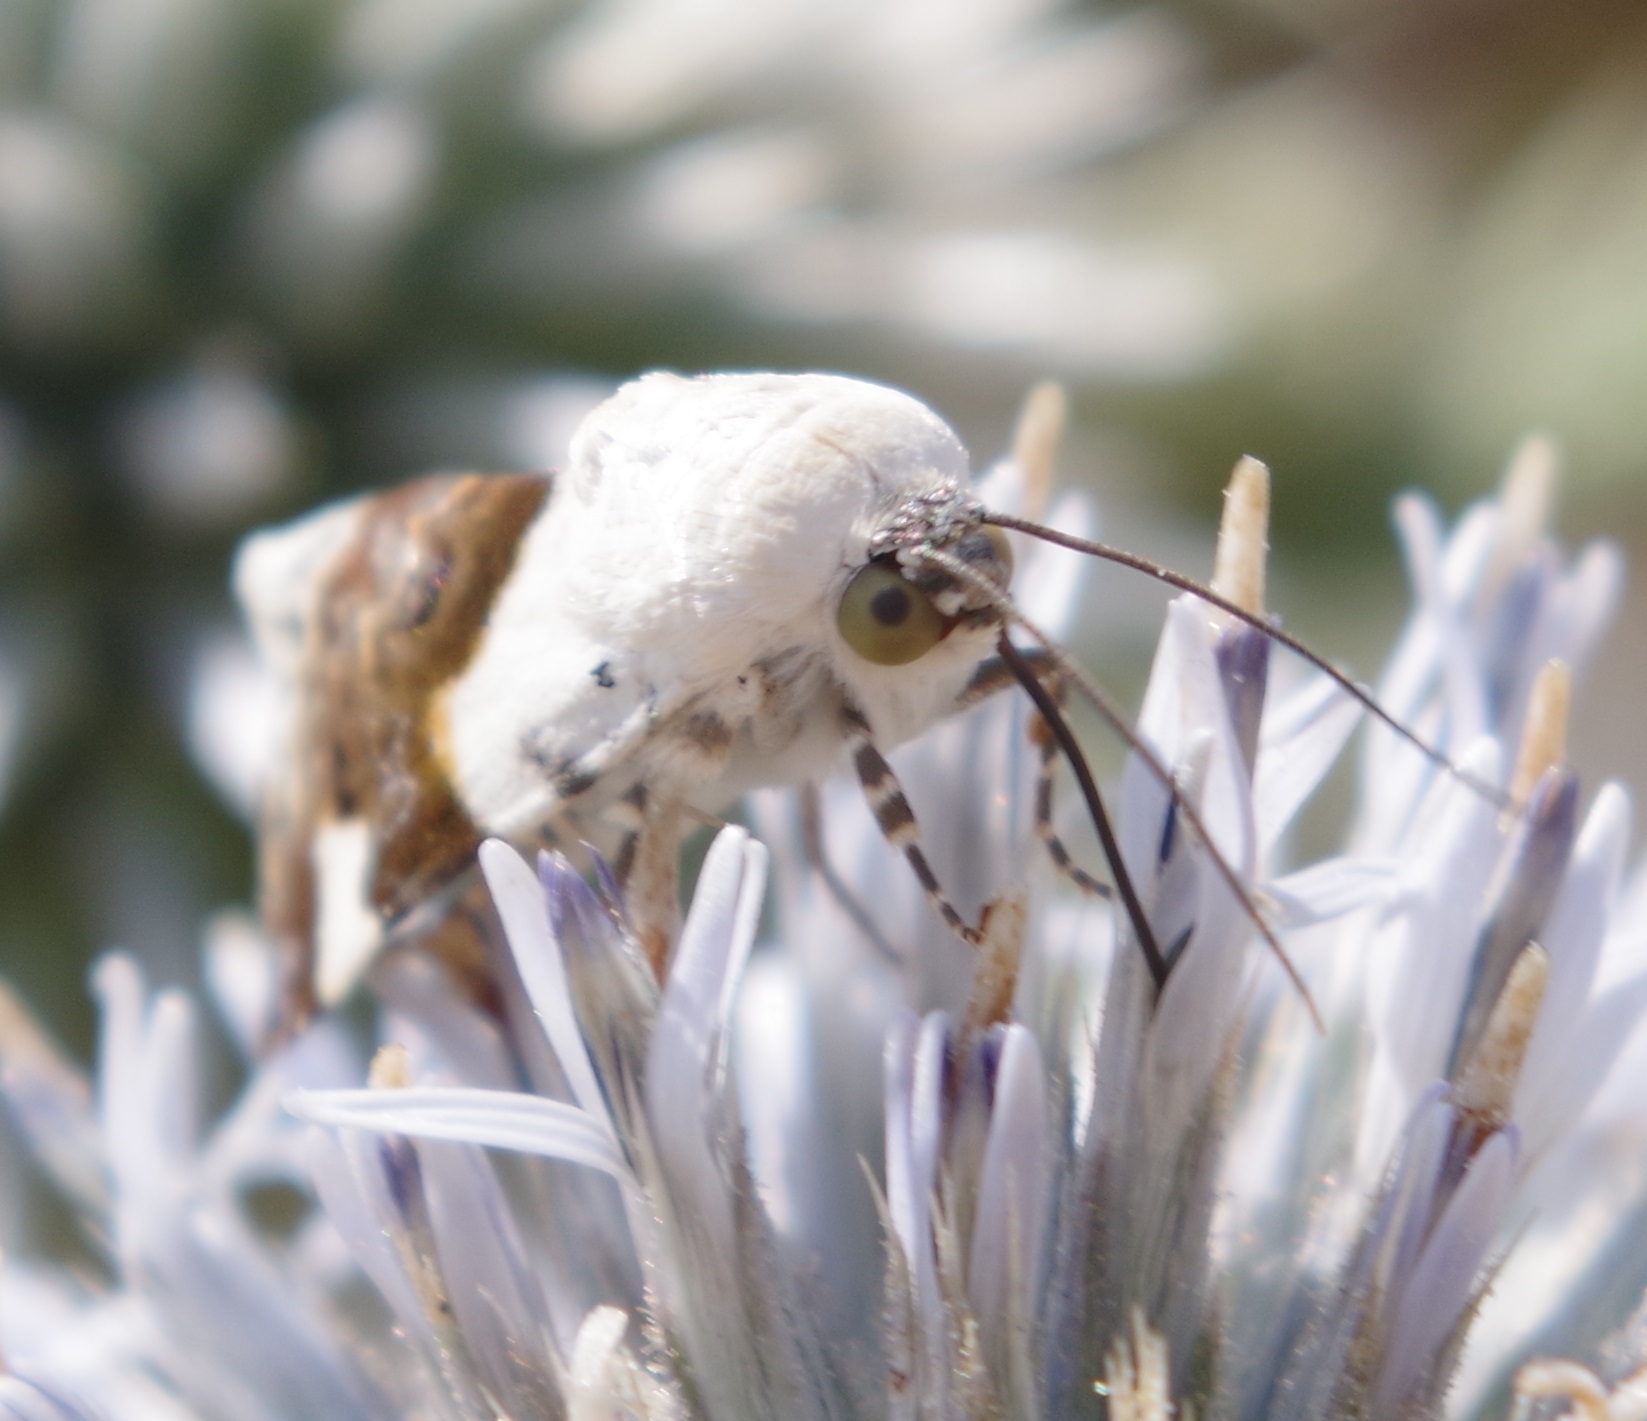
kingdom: Animalia
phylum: Arthropoda
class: Insecta
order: Lepidoptera
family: Noctuidae
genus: Acontia
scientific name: Acontia lucida
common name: Pale shoulder
